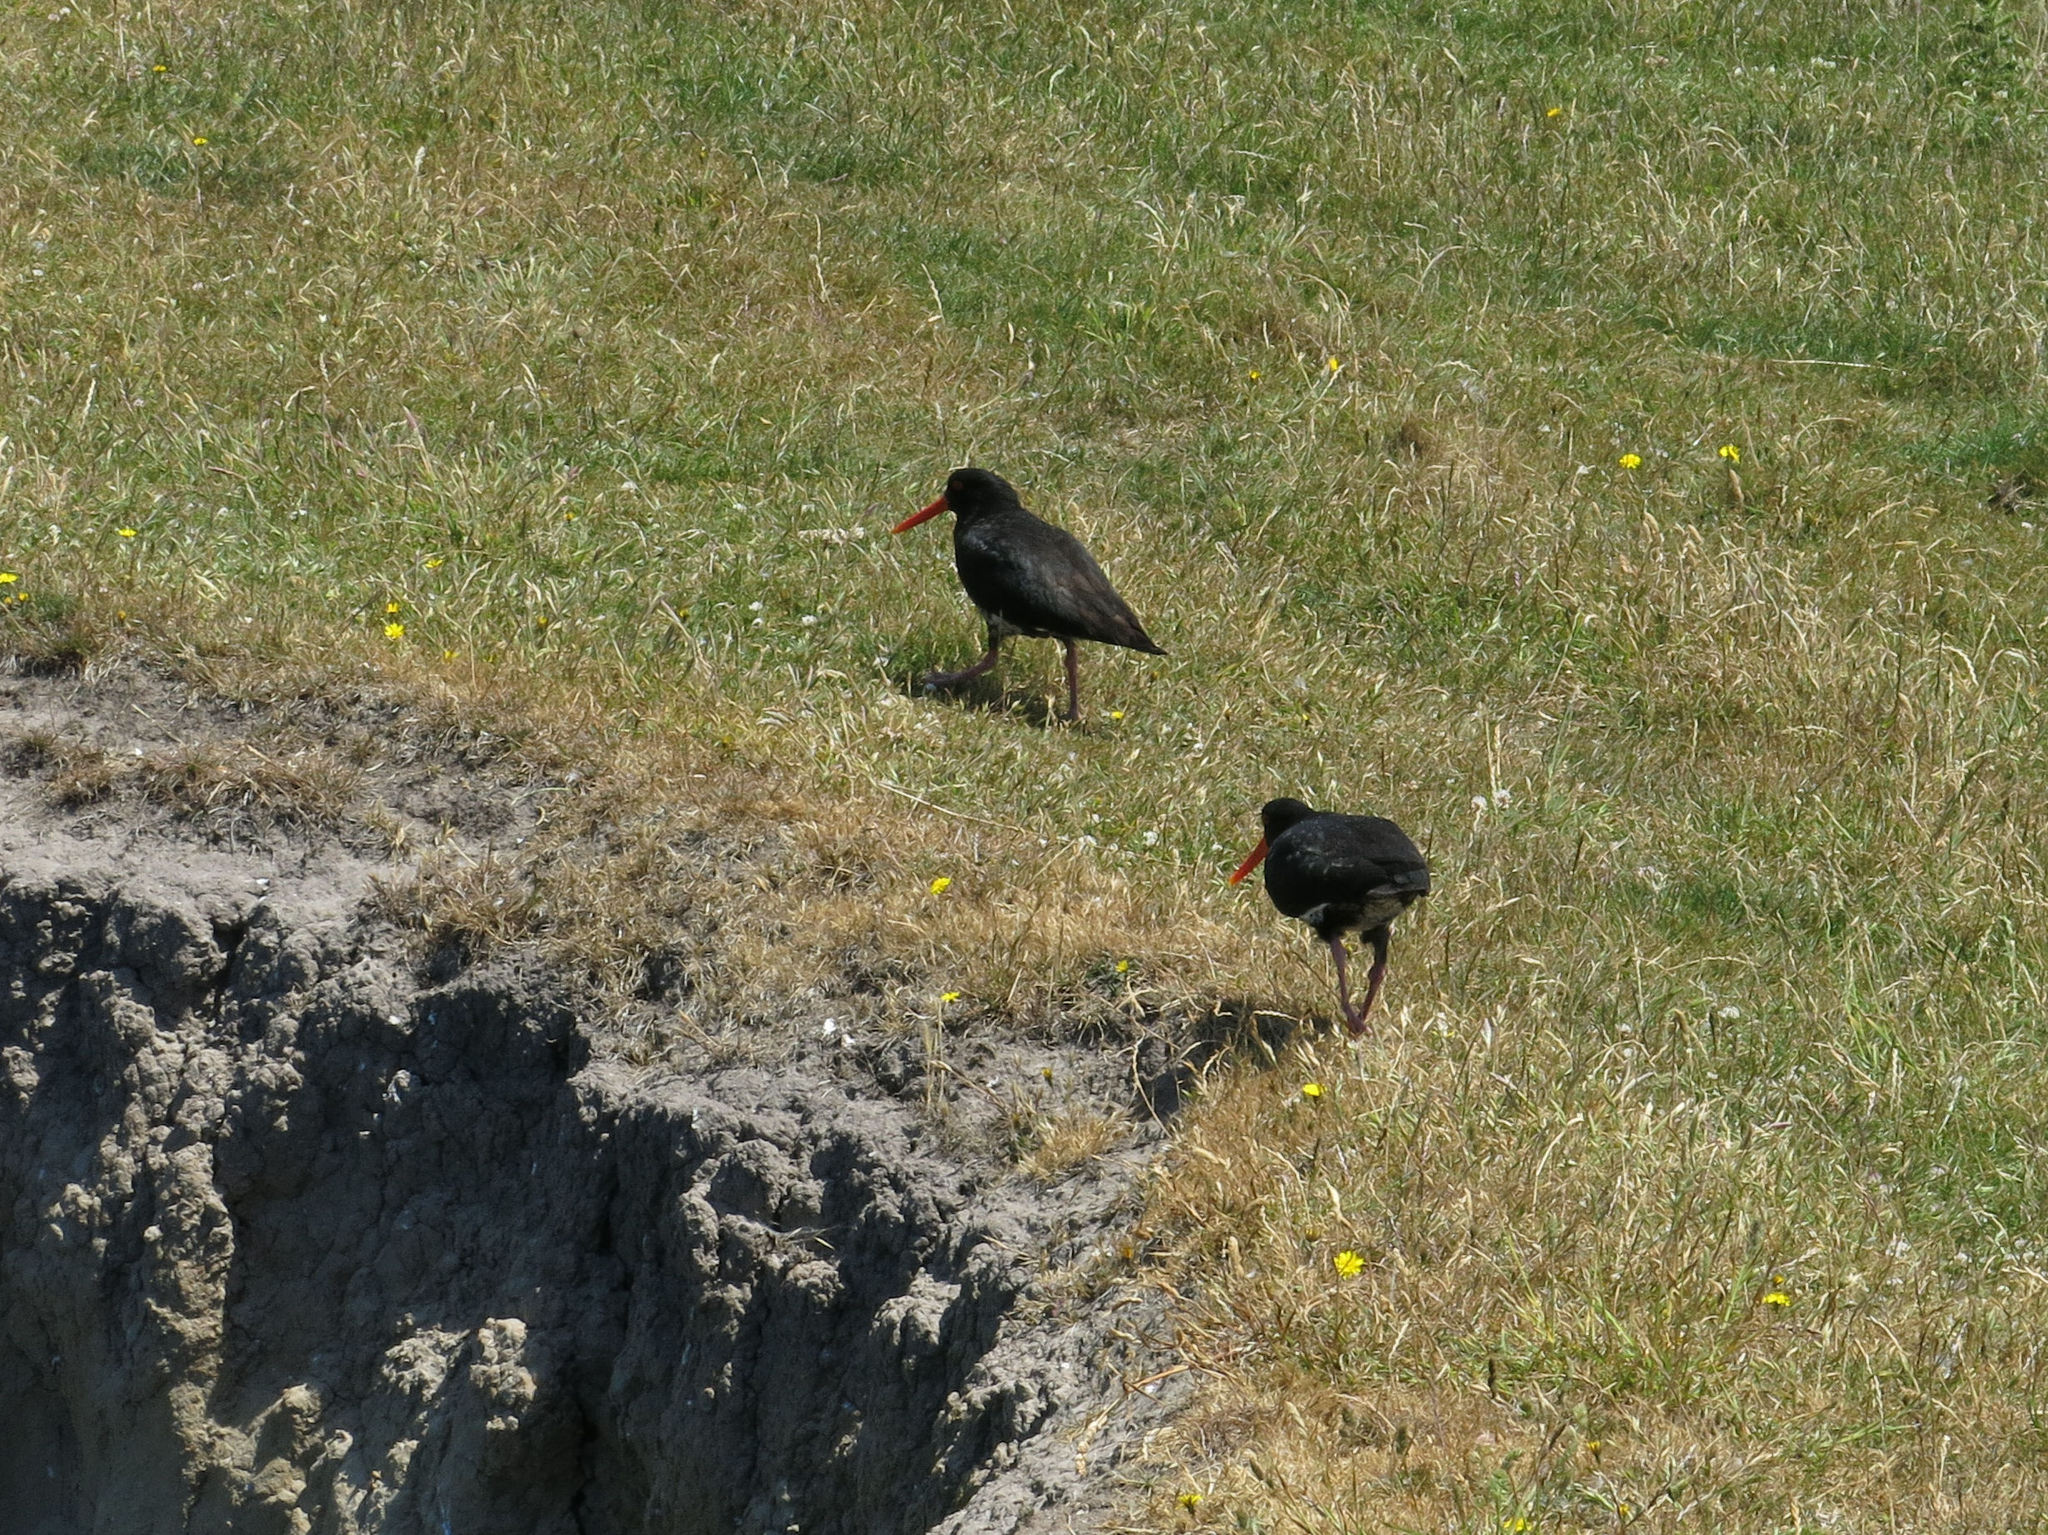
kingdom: Animalia
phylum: Chordata
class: Aves
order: Charadriiformes
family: Haematopodidae
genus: Haematopus
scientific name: Haematopus unicolor
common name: Variable oystercatcher
